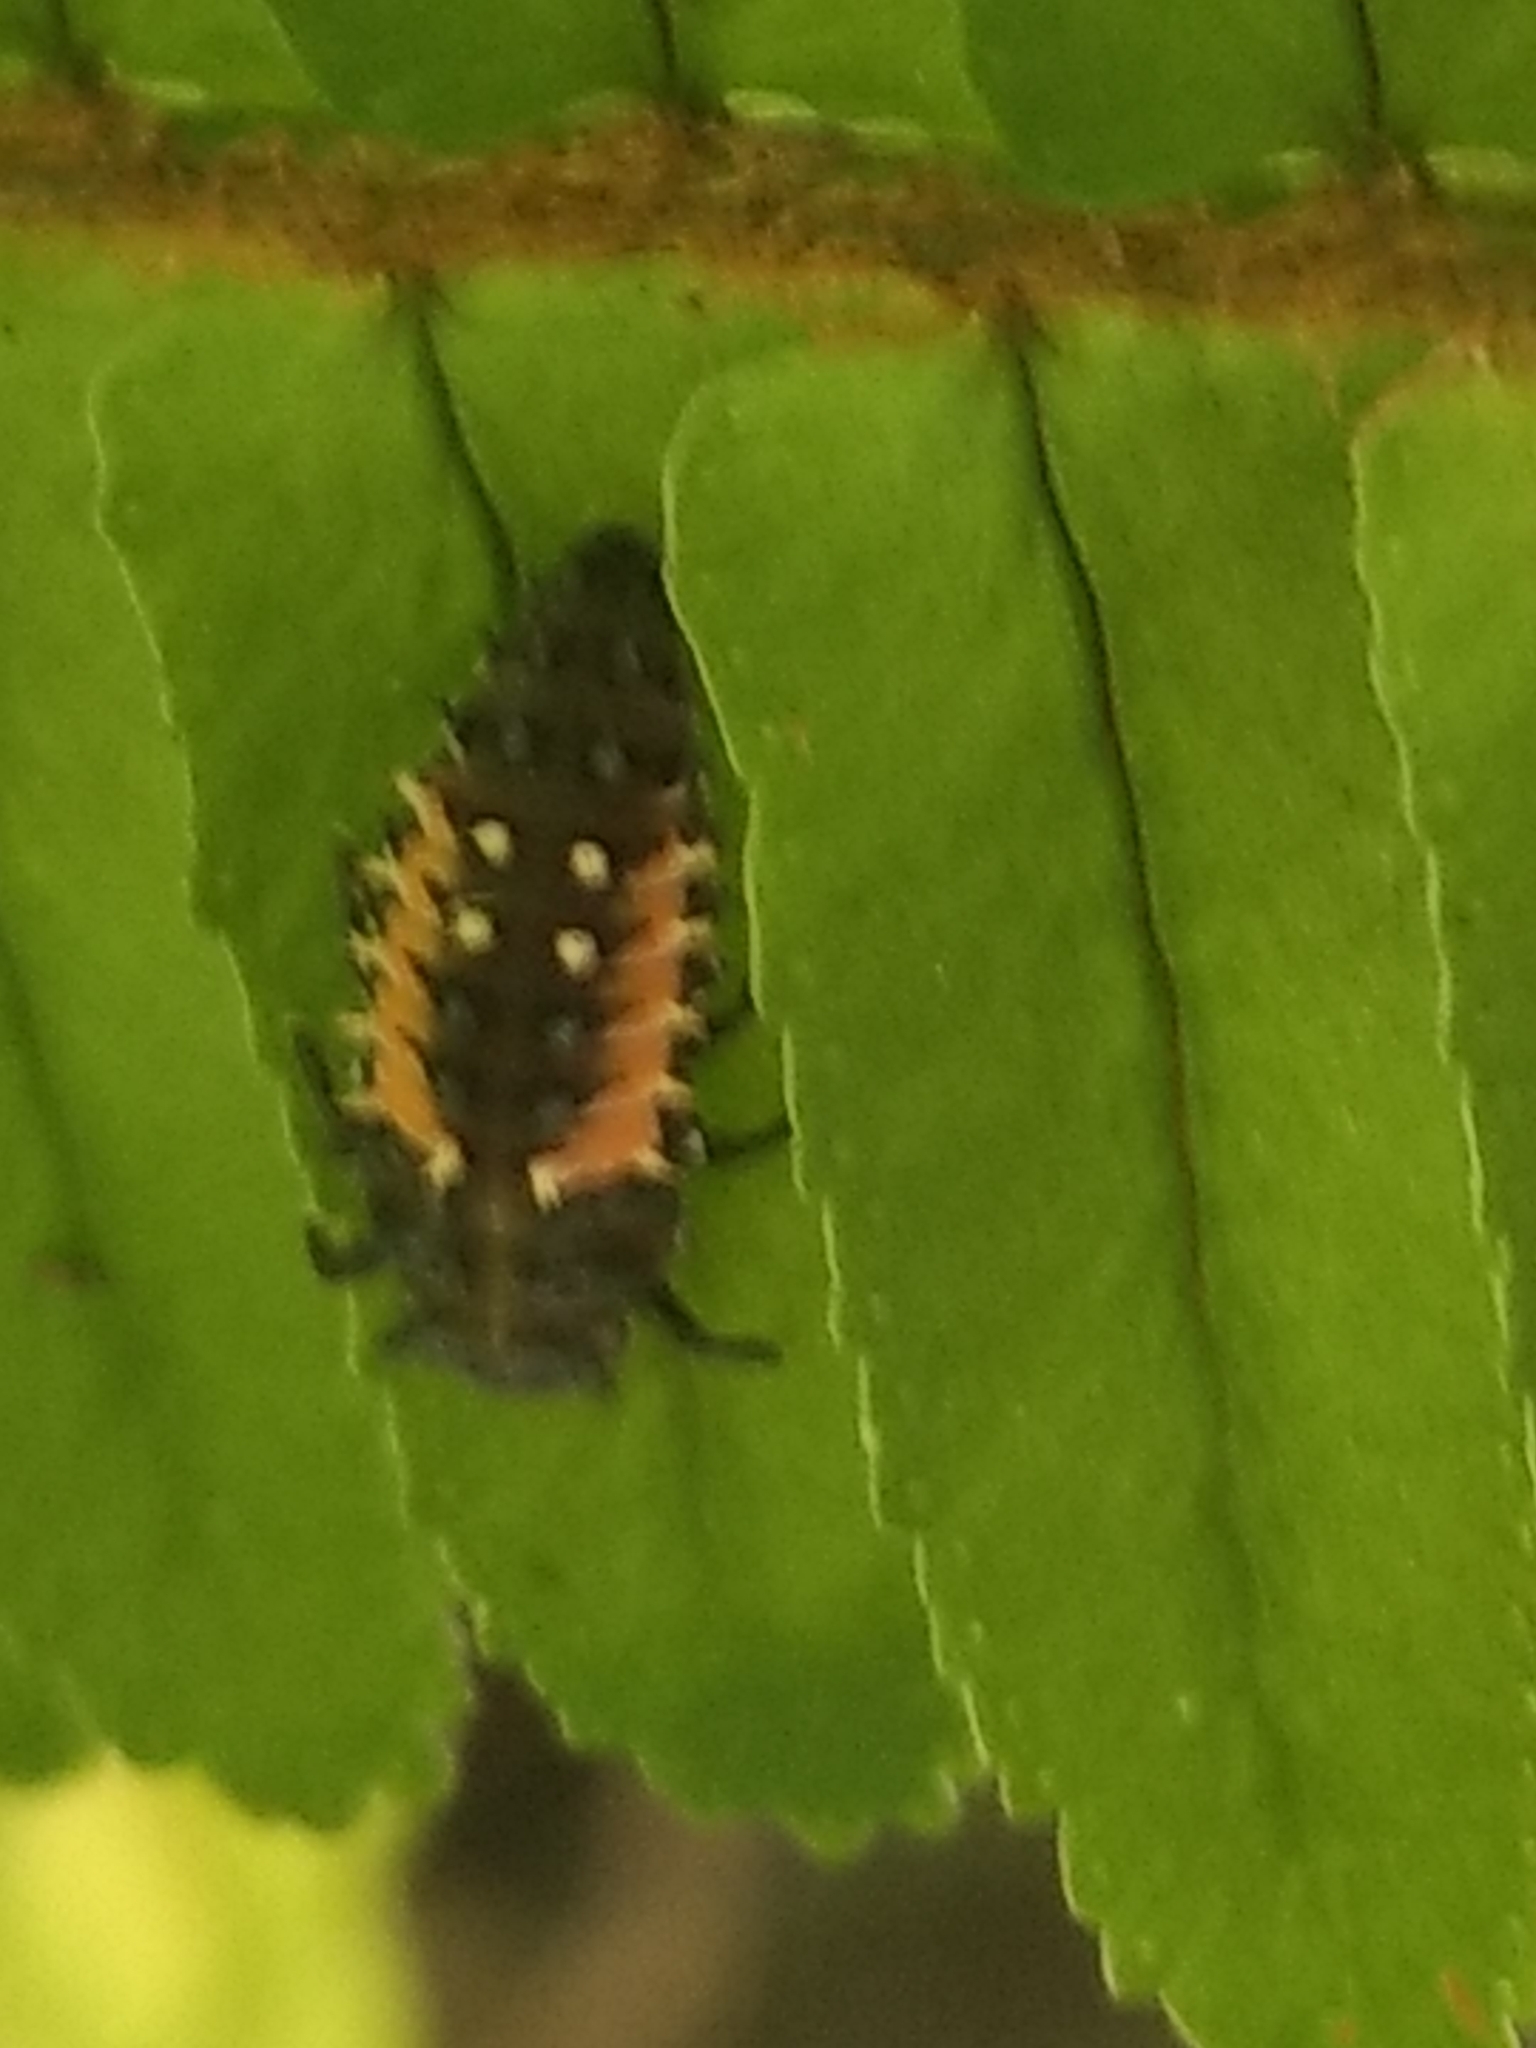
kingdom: Animalia
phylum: Arthropoda
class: Insecta
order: Coleoptera
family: Coccinellidae
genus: Harmonia
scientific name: Harmonia axyridis
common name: Harlequin ladybird
